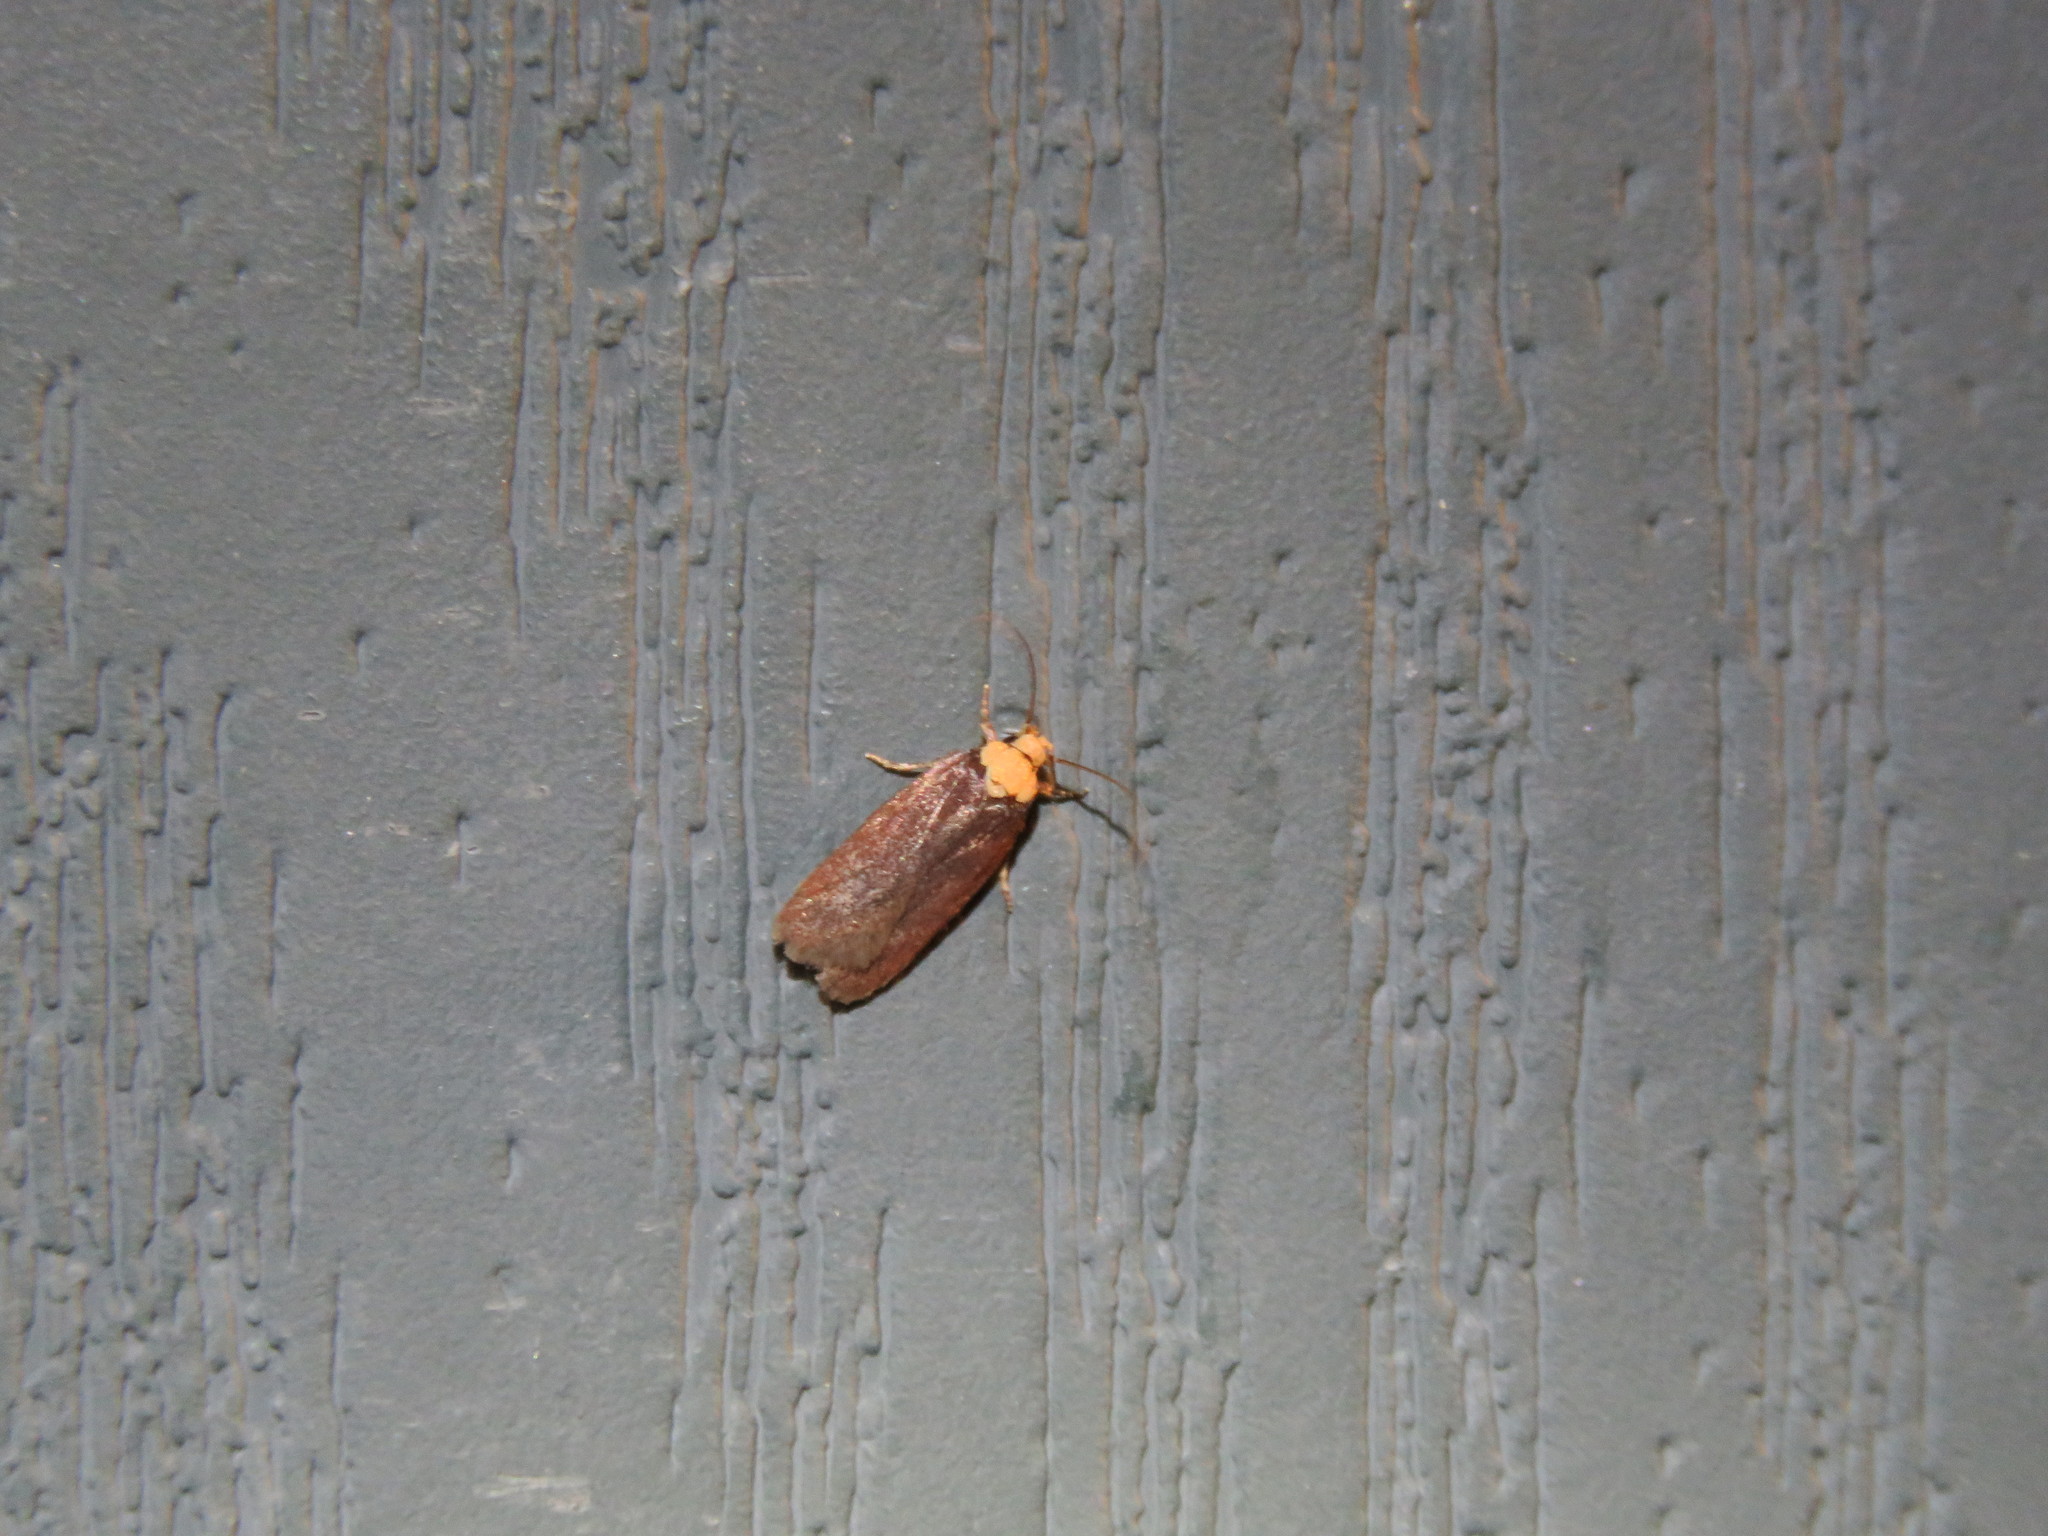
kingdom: Animalia
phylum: Arthropoda
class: Insecta
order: Lepidoptera
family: Depressariidae
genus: Depressaria
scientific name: Depressaria depressana
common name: Lost flat-body
